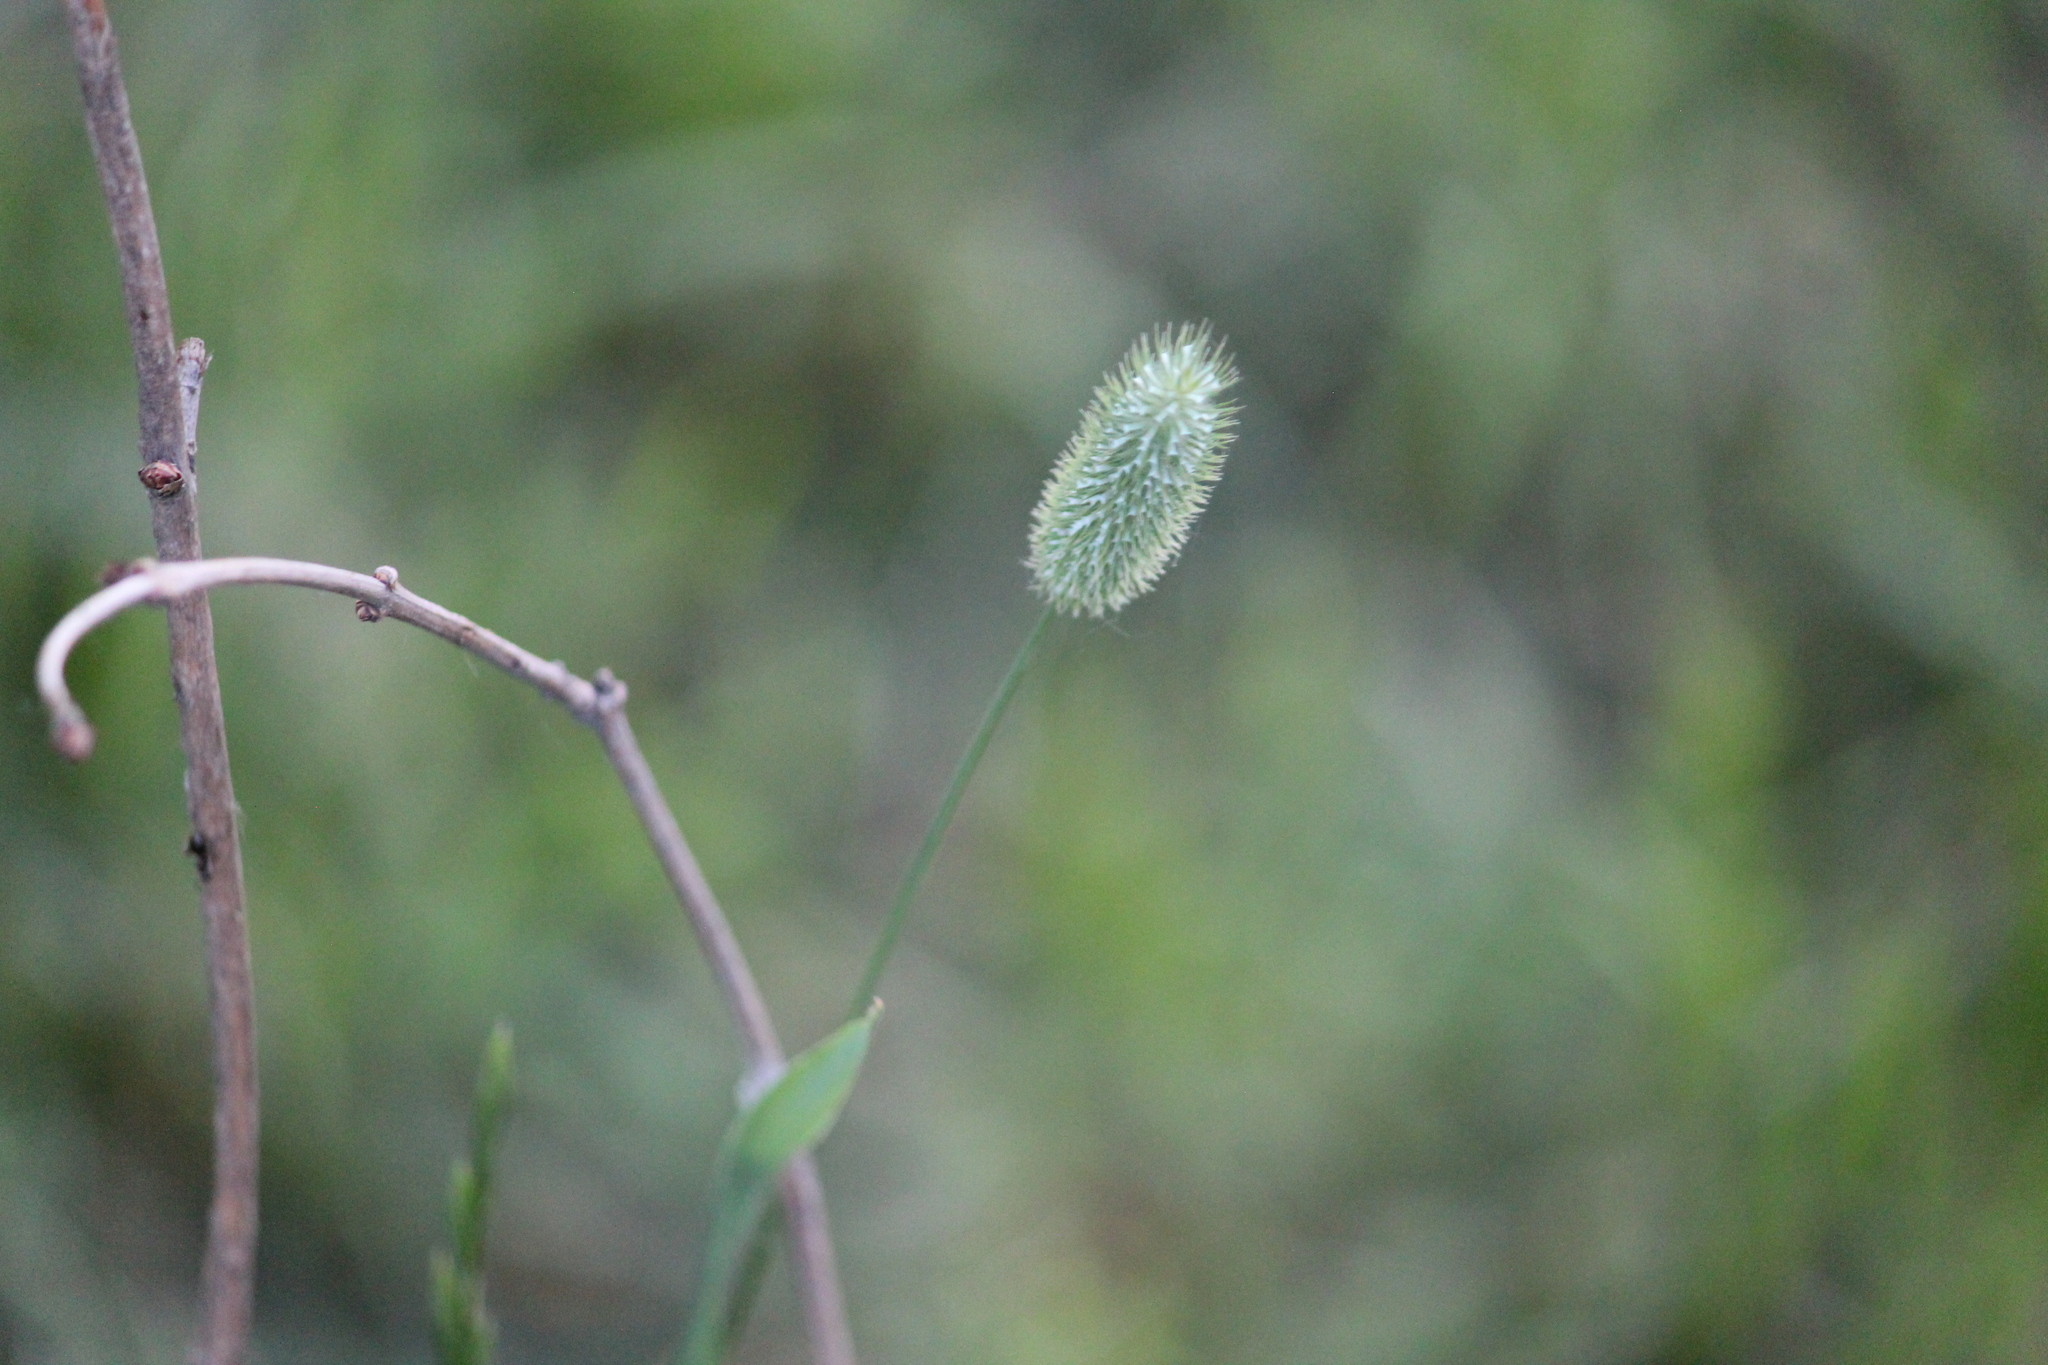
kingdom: Plantae
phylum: Tracheophyta
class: Liliopsida
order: Poales
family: Poaceae
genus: Phleum
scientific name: Phleum pratense
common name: Timothy grass
